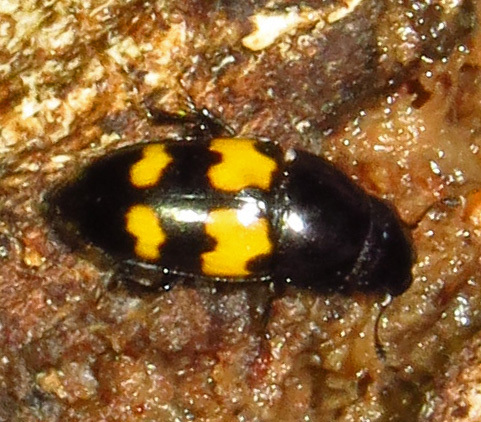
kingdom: Animalia
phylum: Arthropoda
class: Insecta
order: Coleoptera
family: Nitidulidae
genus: Glischrochilus
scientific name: Glischrochilus fasciatus
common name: Picnic beetle
